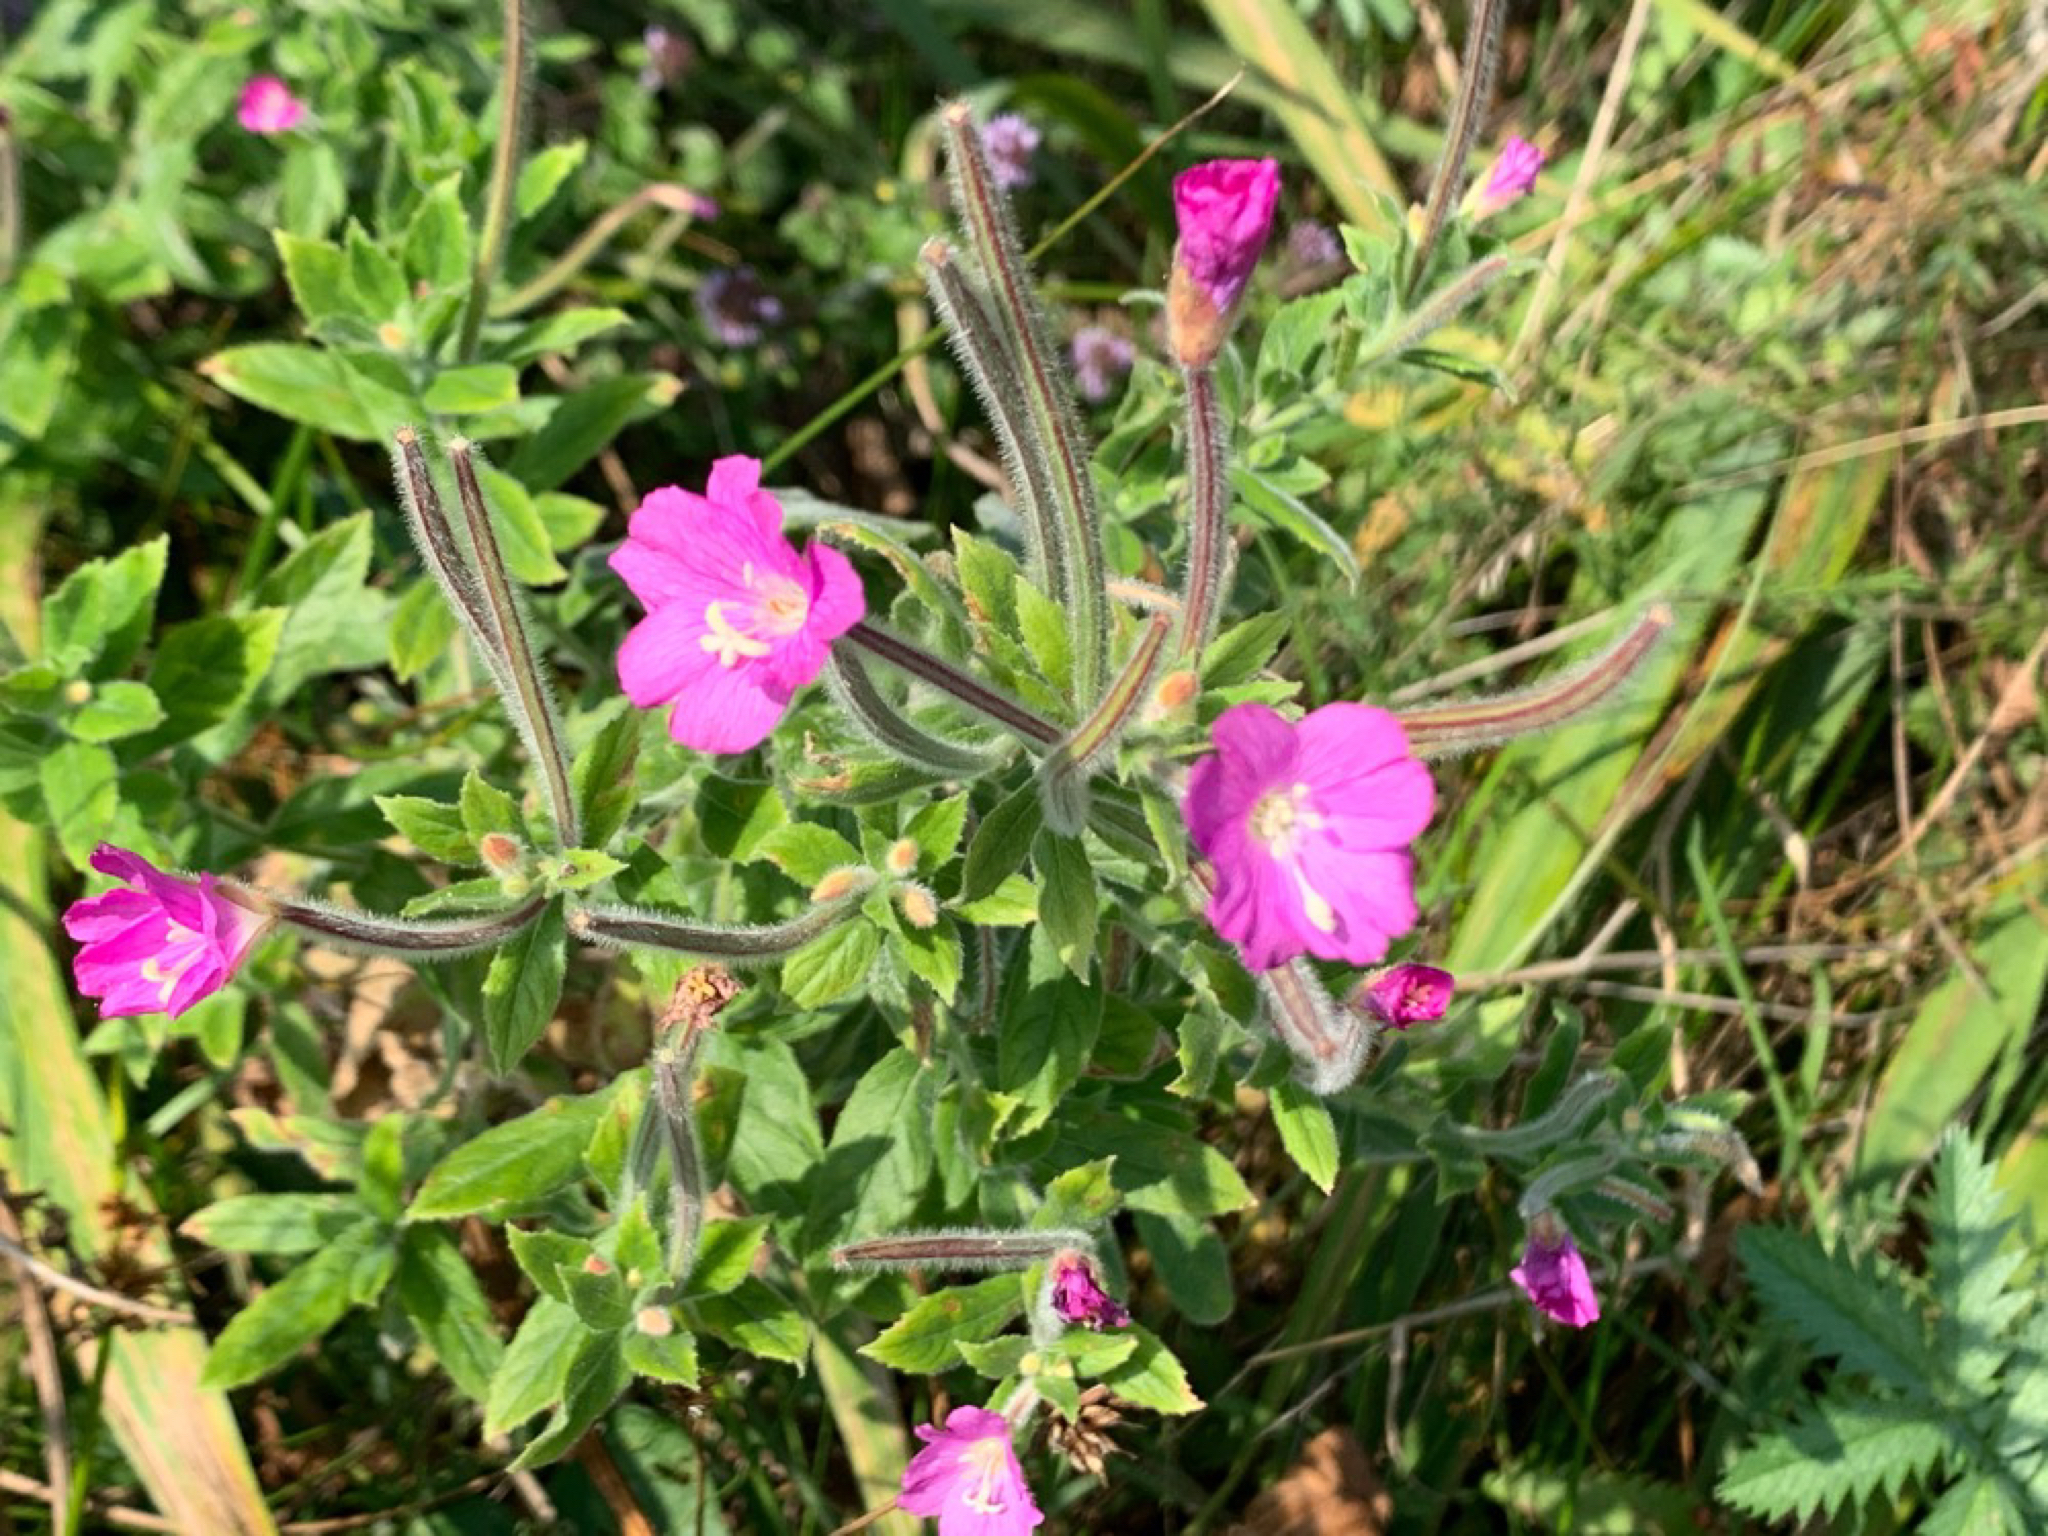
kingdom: Plantae
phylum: Tracheophyta
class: Magnoliopsida
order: Myrtales
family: Onagraceae
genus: Epilobium
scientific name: Epilobium hirsutum
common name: Great willowherb
